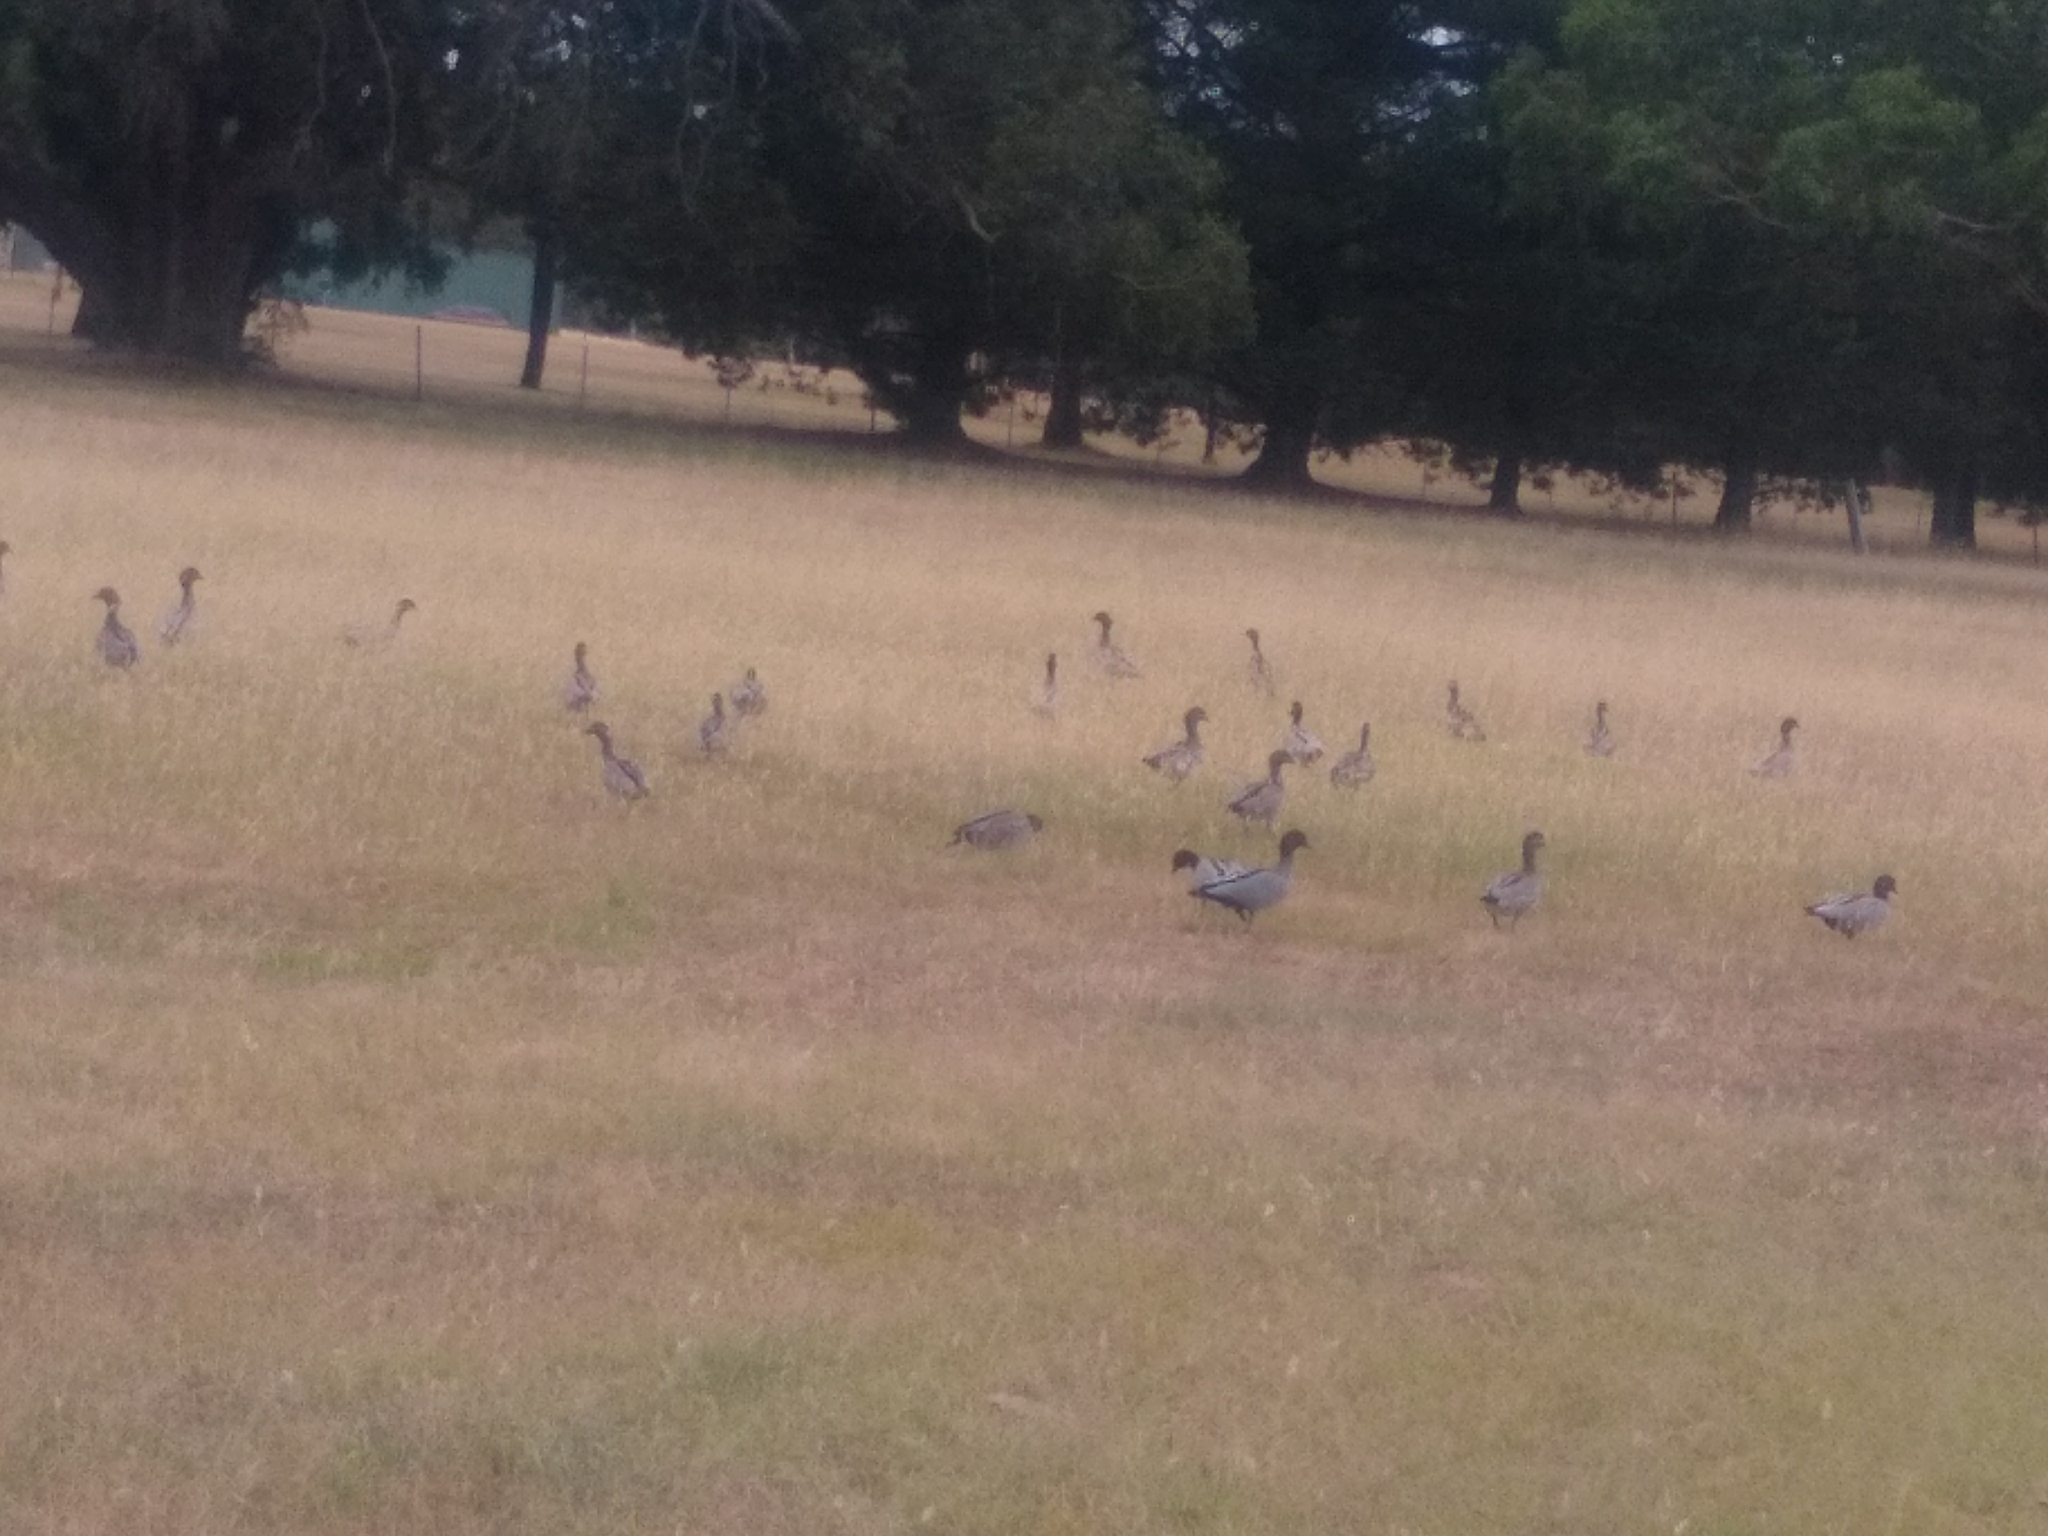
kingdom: Animalia
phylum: Chordata
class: Aves
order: Anseriformes
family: Anatidae
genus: Chenonetta
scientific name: Chenonetta jubata
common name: Maned duck
